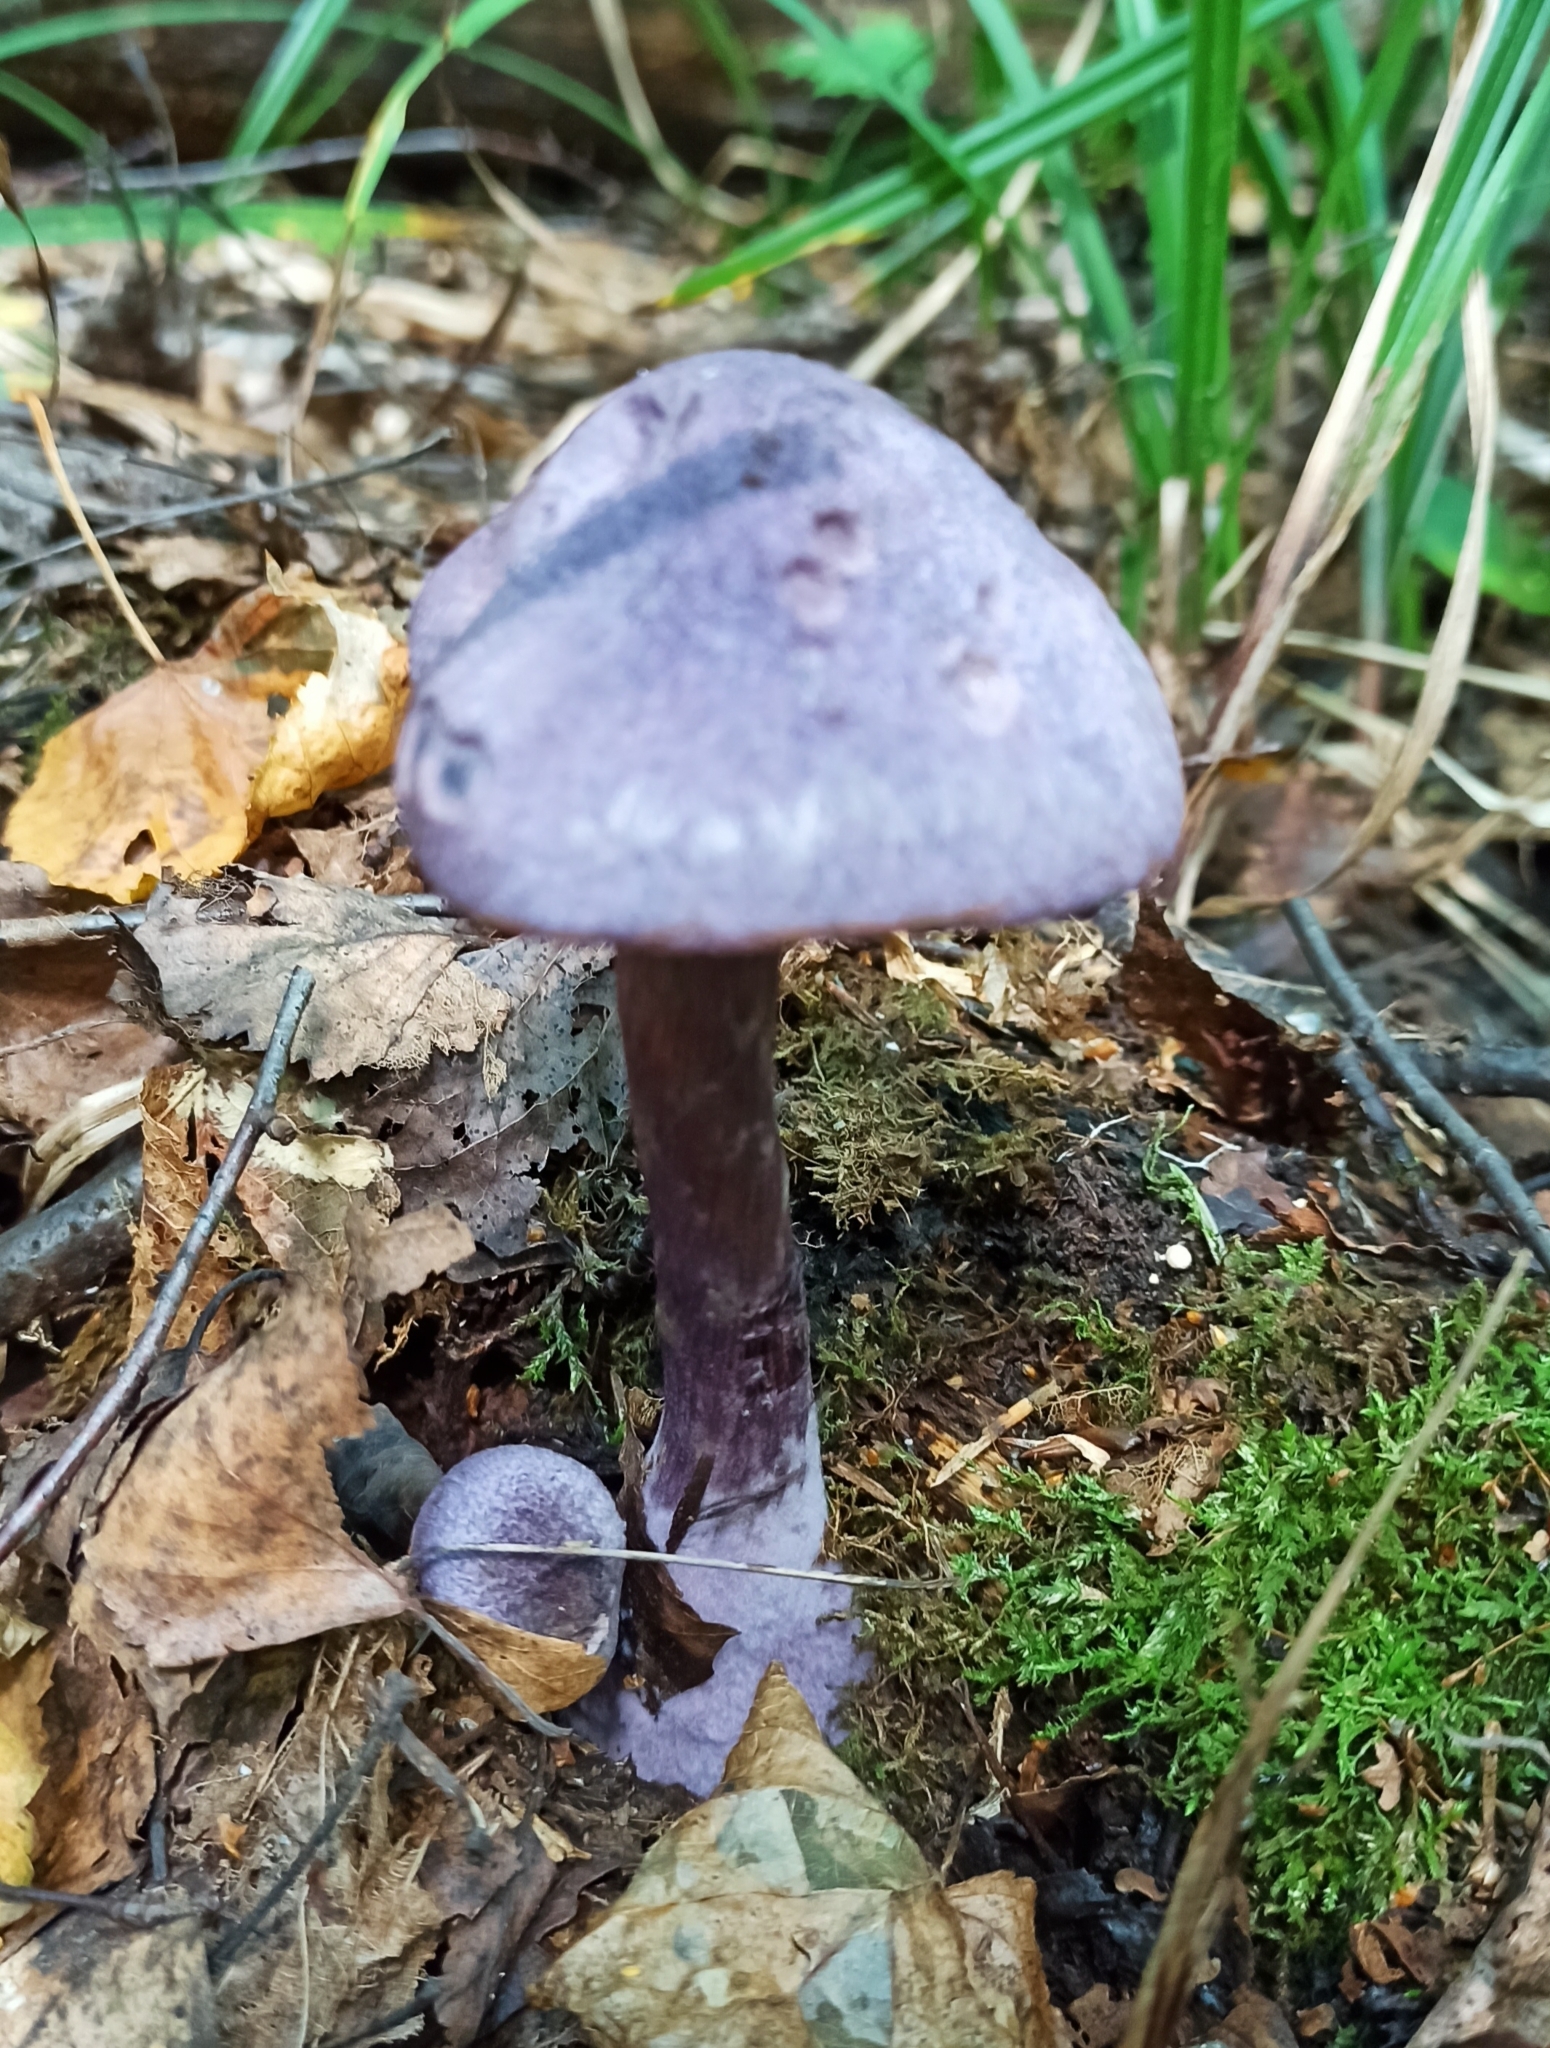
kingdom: Fungi
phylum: Basidiomycota
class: Agaricomycetes
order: Agaricales
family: Cortinariaceae
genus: Cortinarius
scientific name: Cortinarius violaceus
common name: Violet webcap
